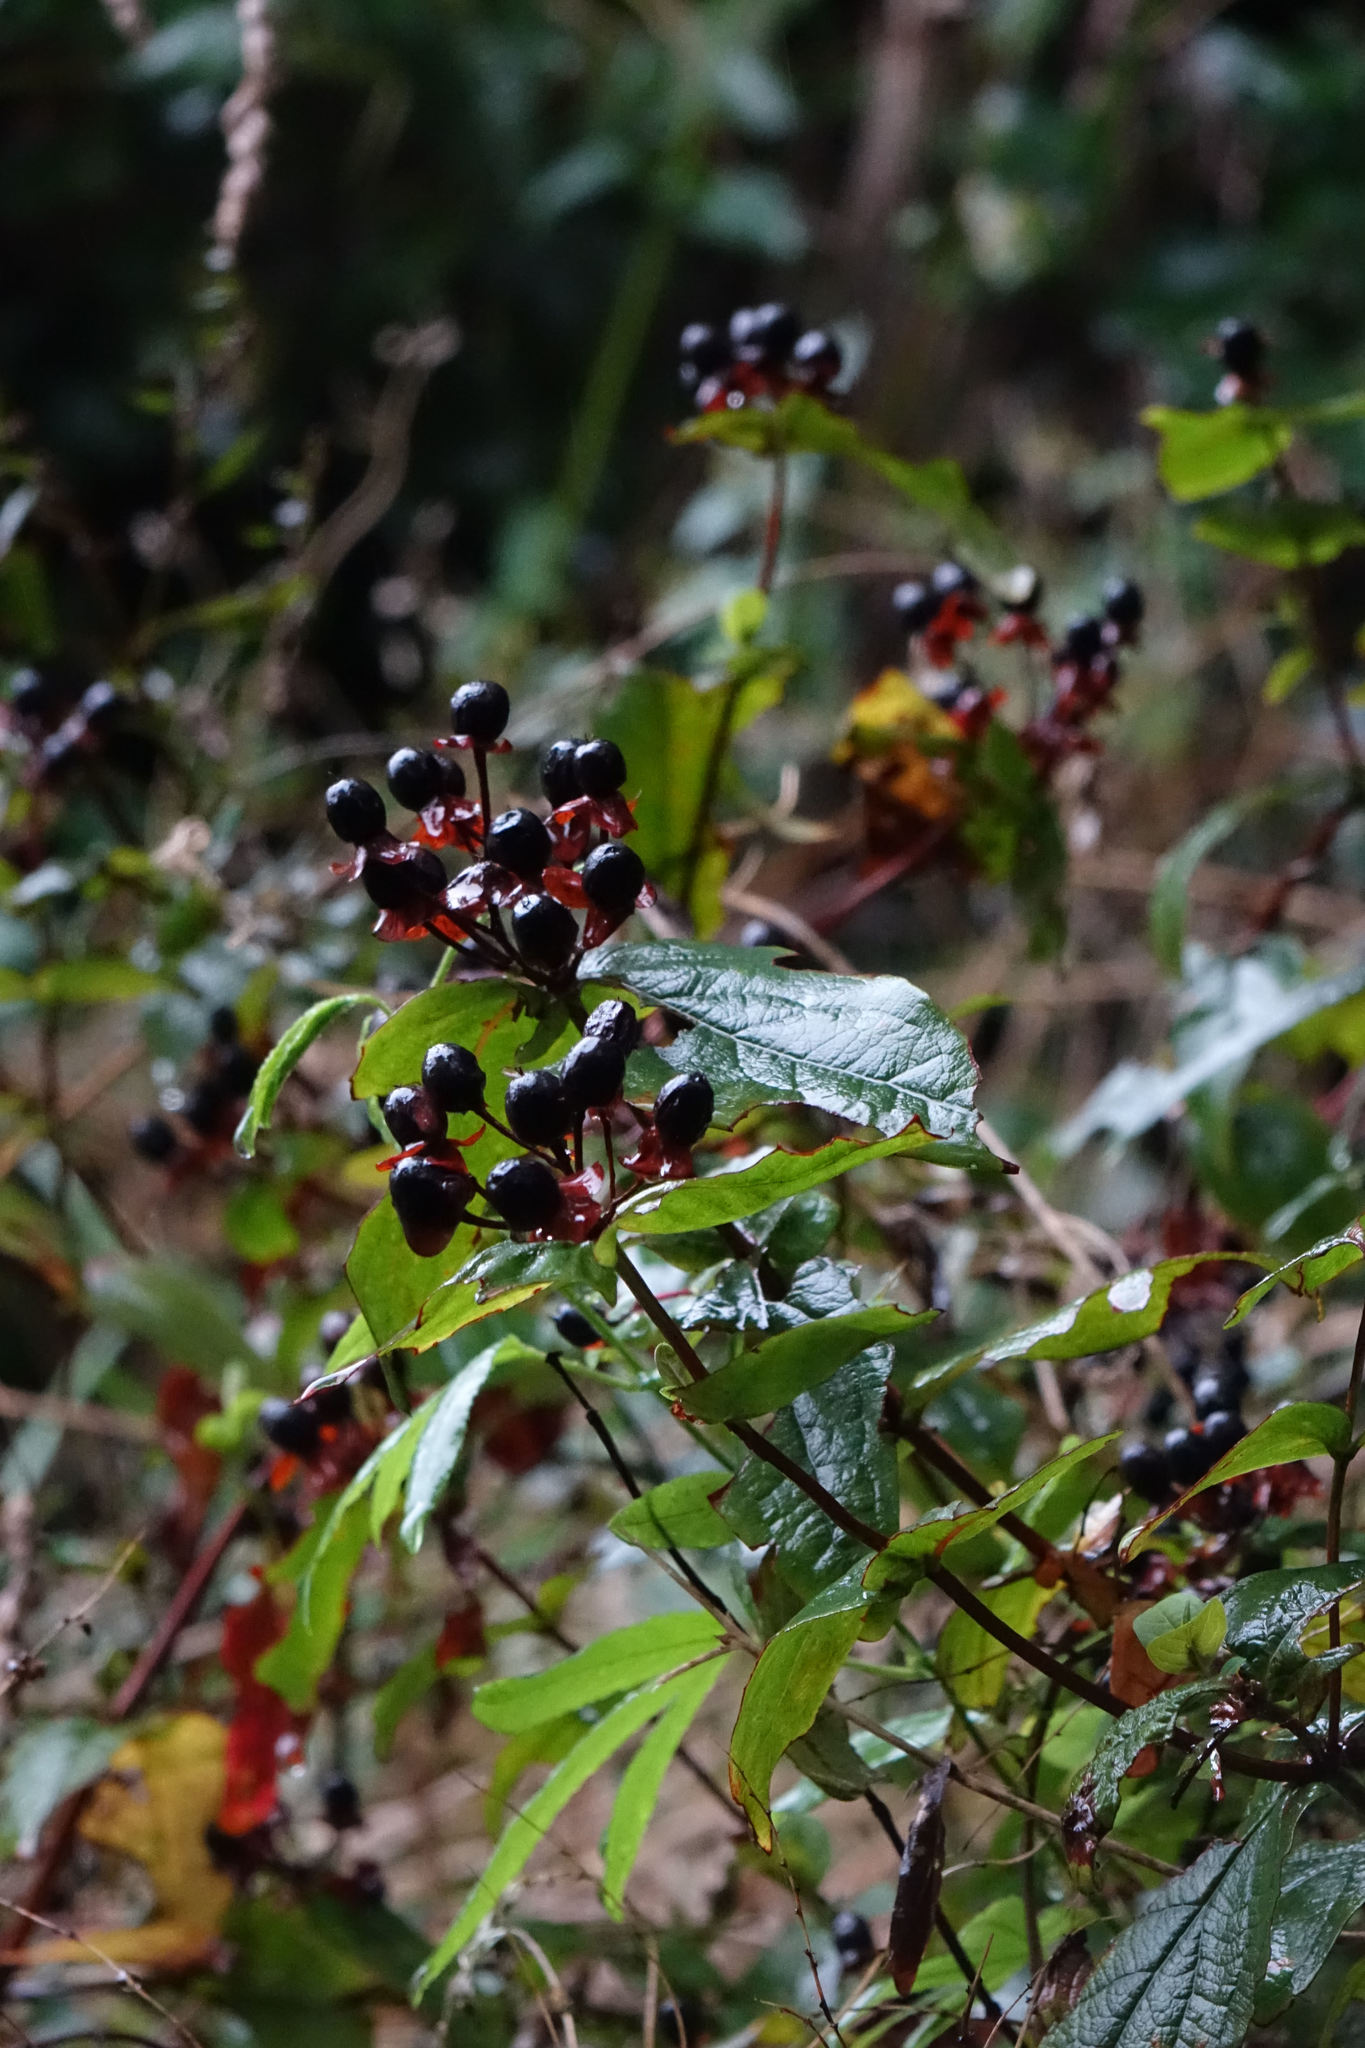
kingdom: Plantae
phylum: Tracheophyta
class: Magnoliopsida
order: Malpighiales
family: Hypericaceae
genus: Hypericum
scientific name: Hypericum androsaemum
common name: Sweet-amber
